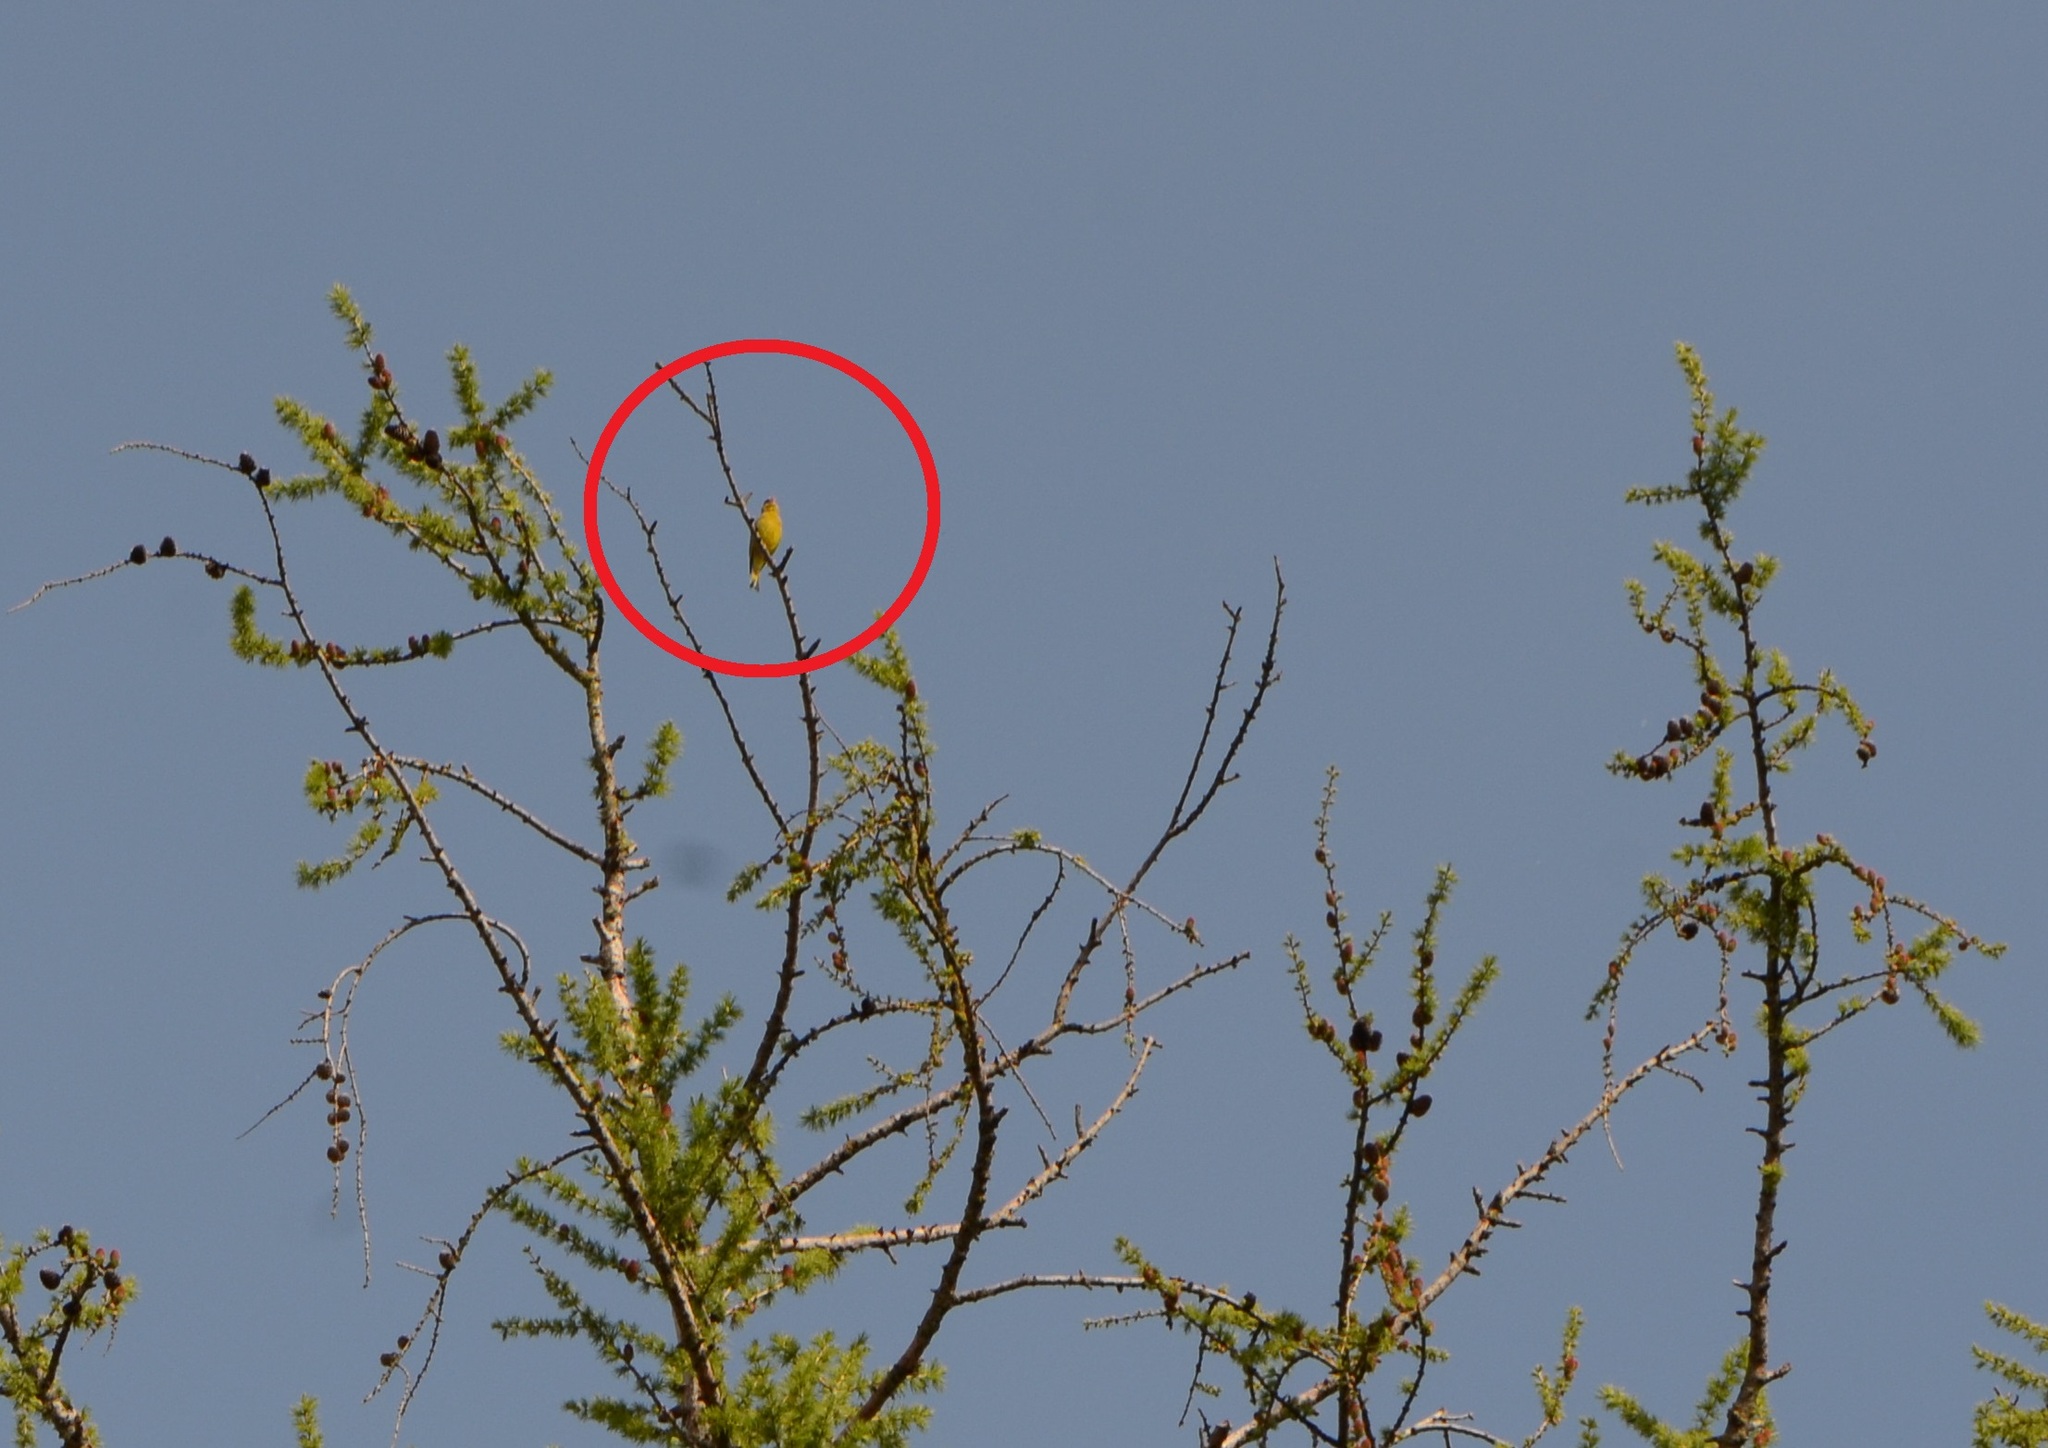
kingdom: Plantae
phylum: Tracheophyta
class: Liliopsida
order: Poales
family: Poaceae
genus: Chloris
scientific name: Chloris chloris
